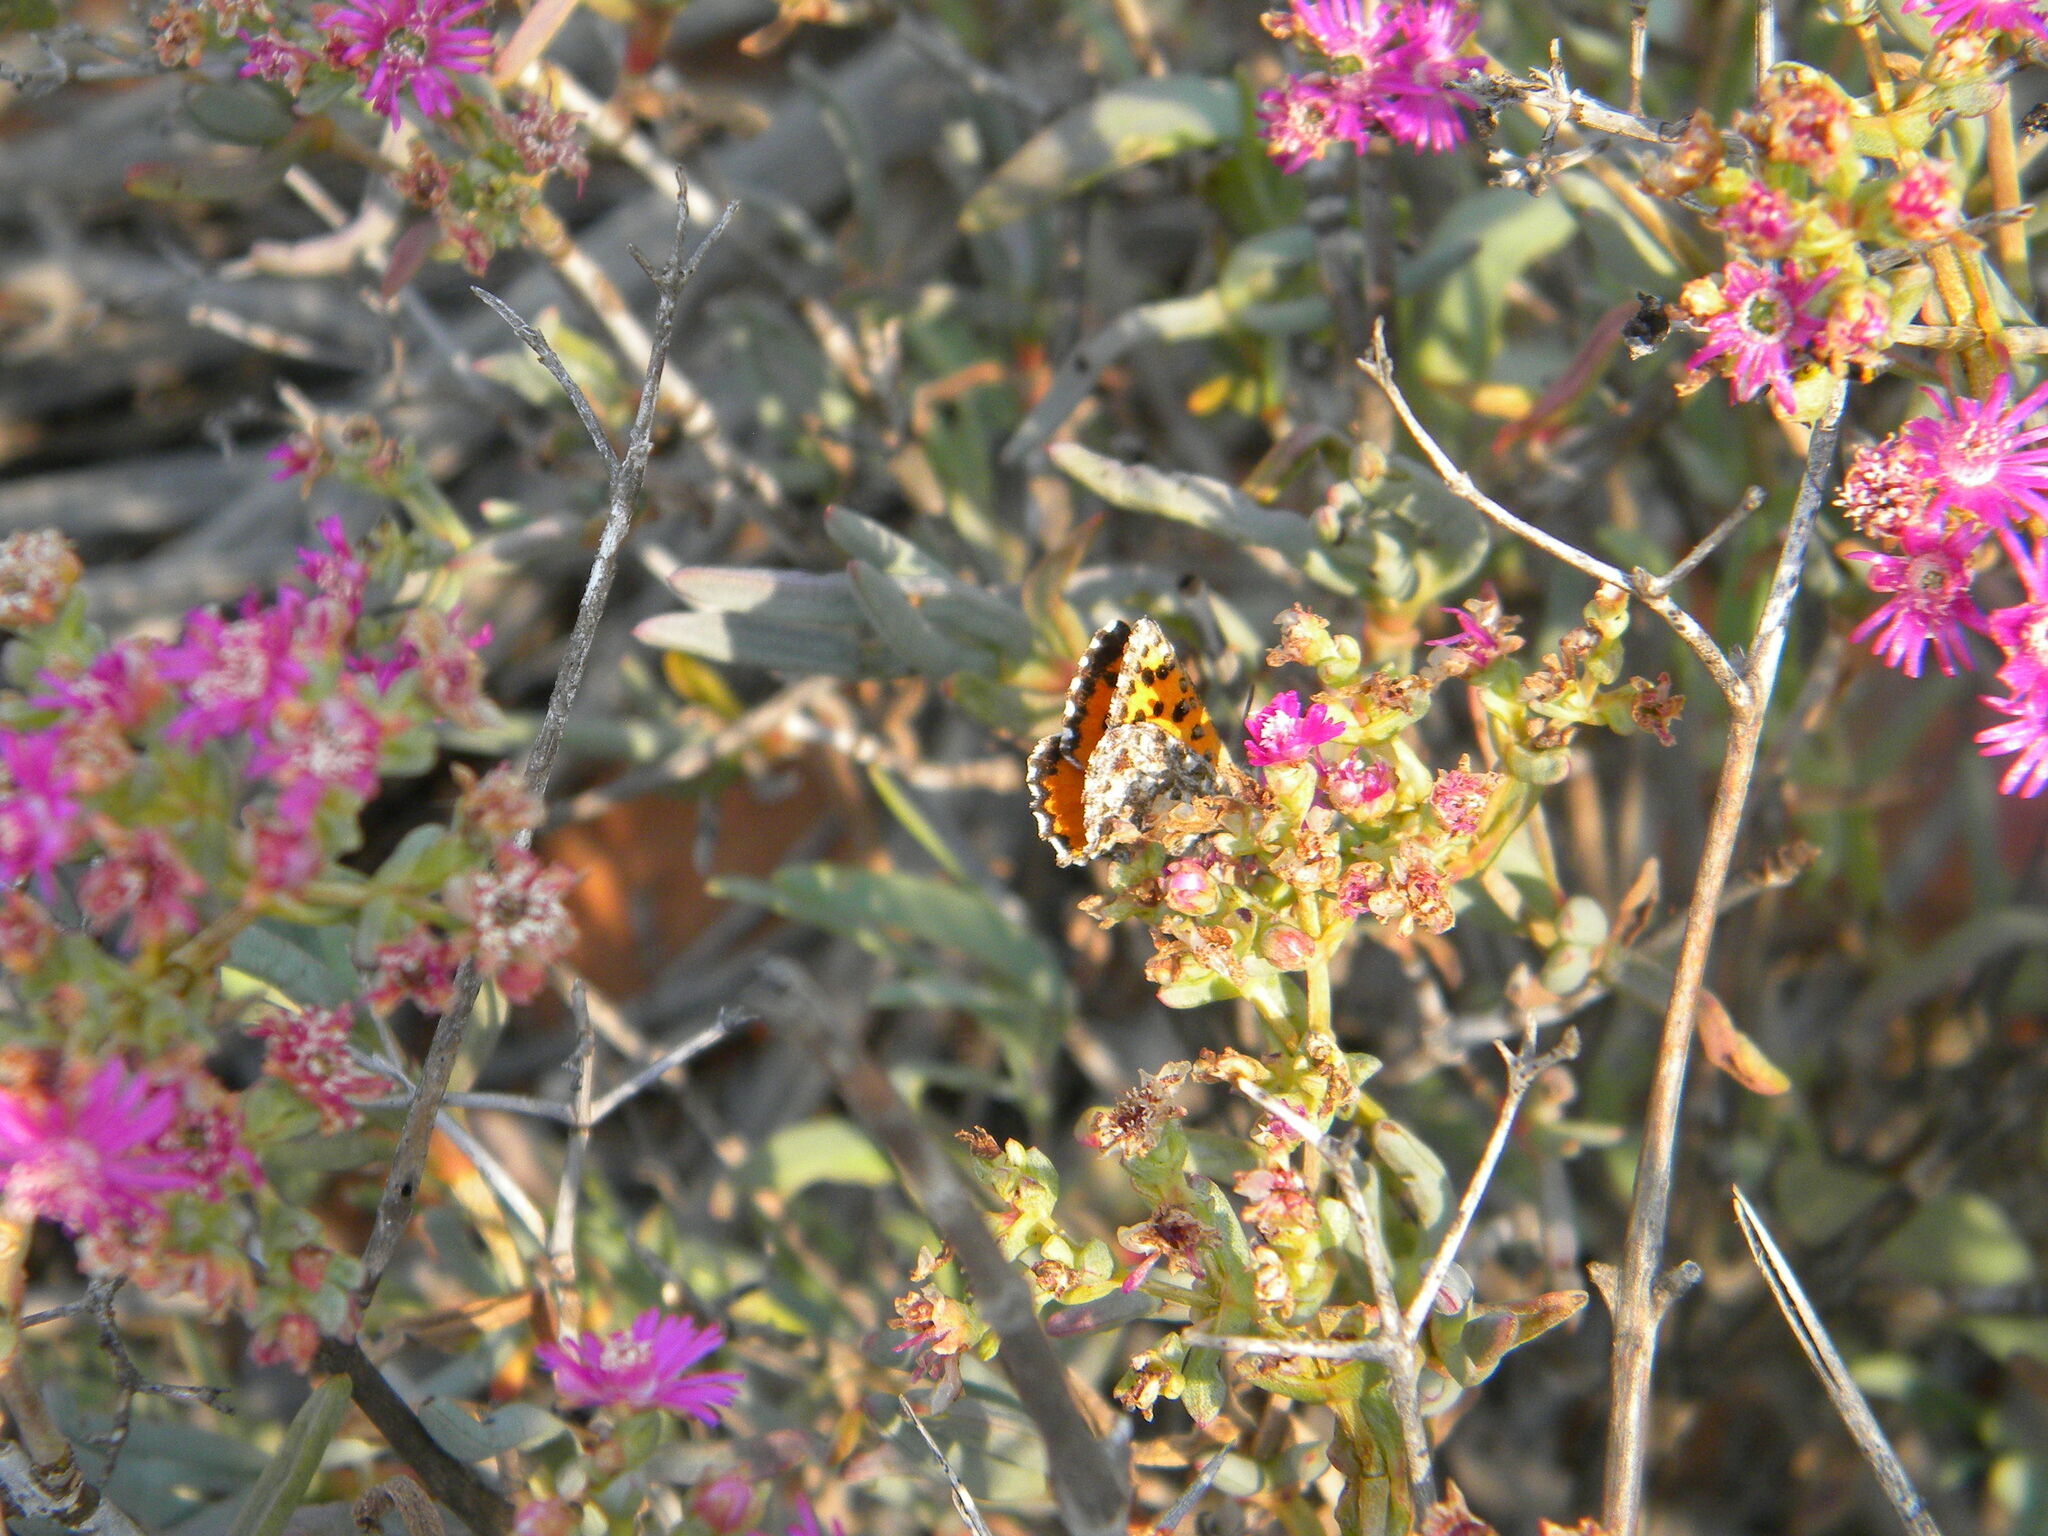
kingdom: Animalia
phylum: Arthropoda
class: Insecta
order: Lepidoptera
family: Lycaenidae
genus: Zeritis
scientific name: Zeritis chrysantas
